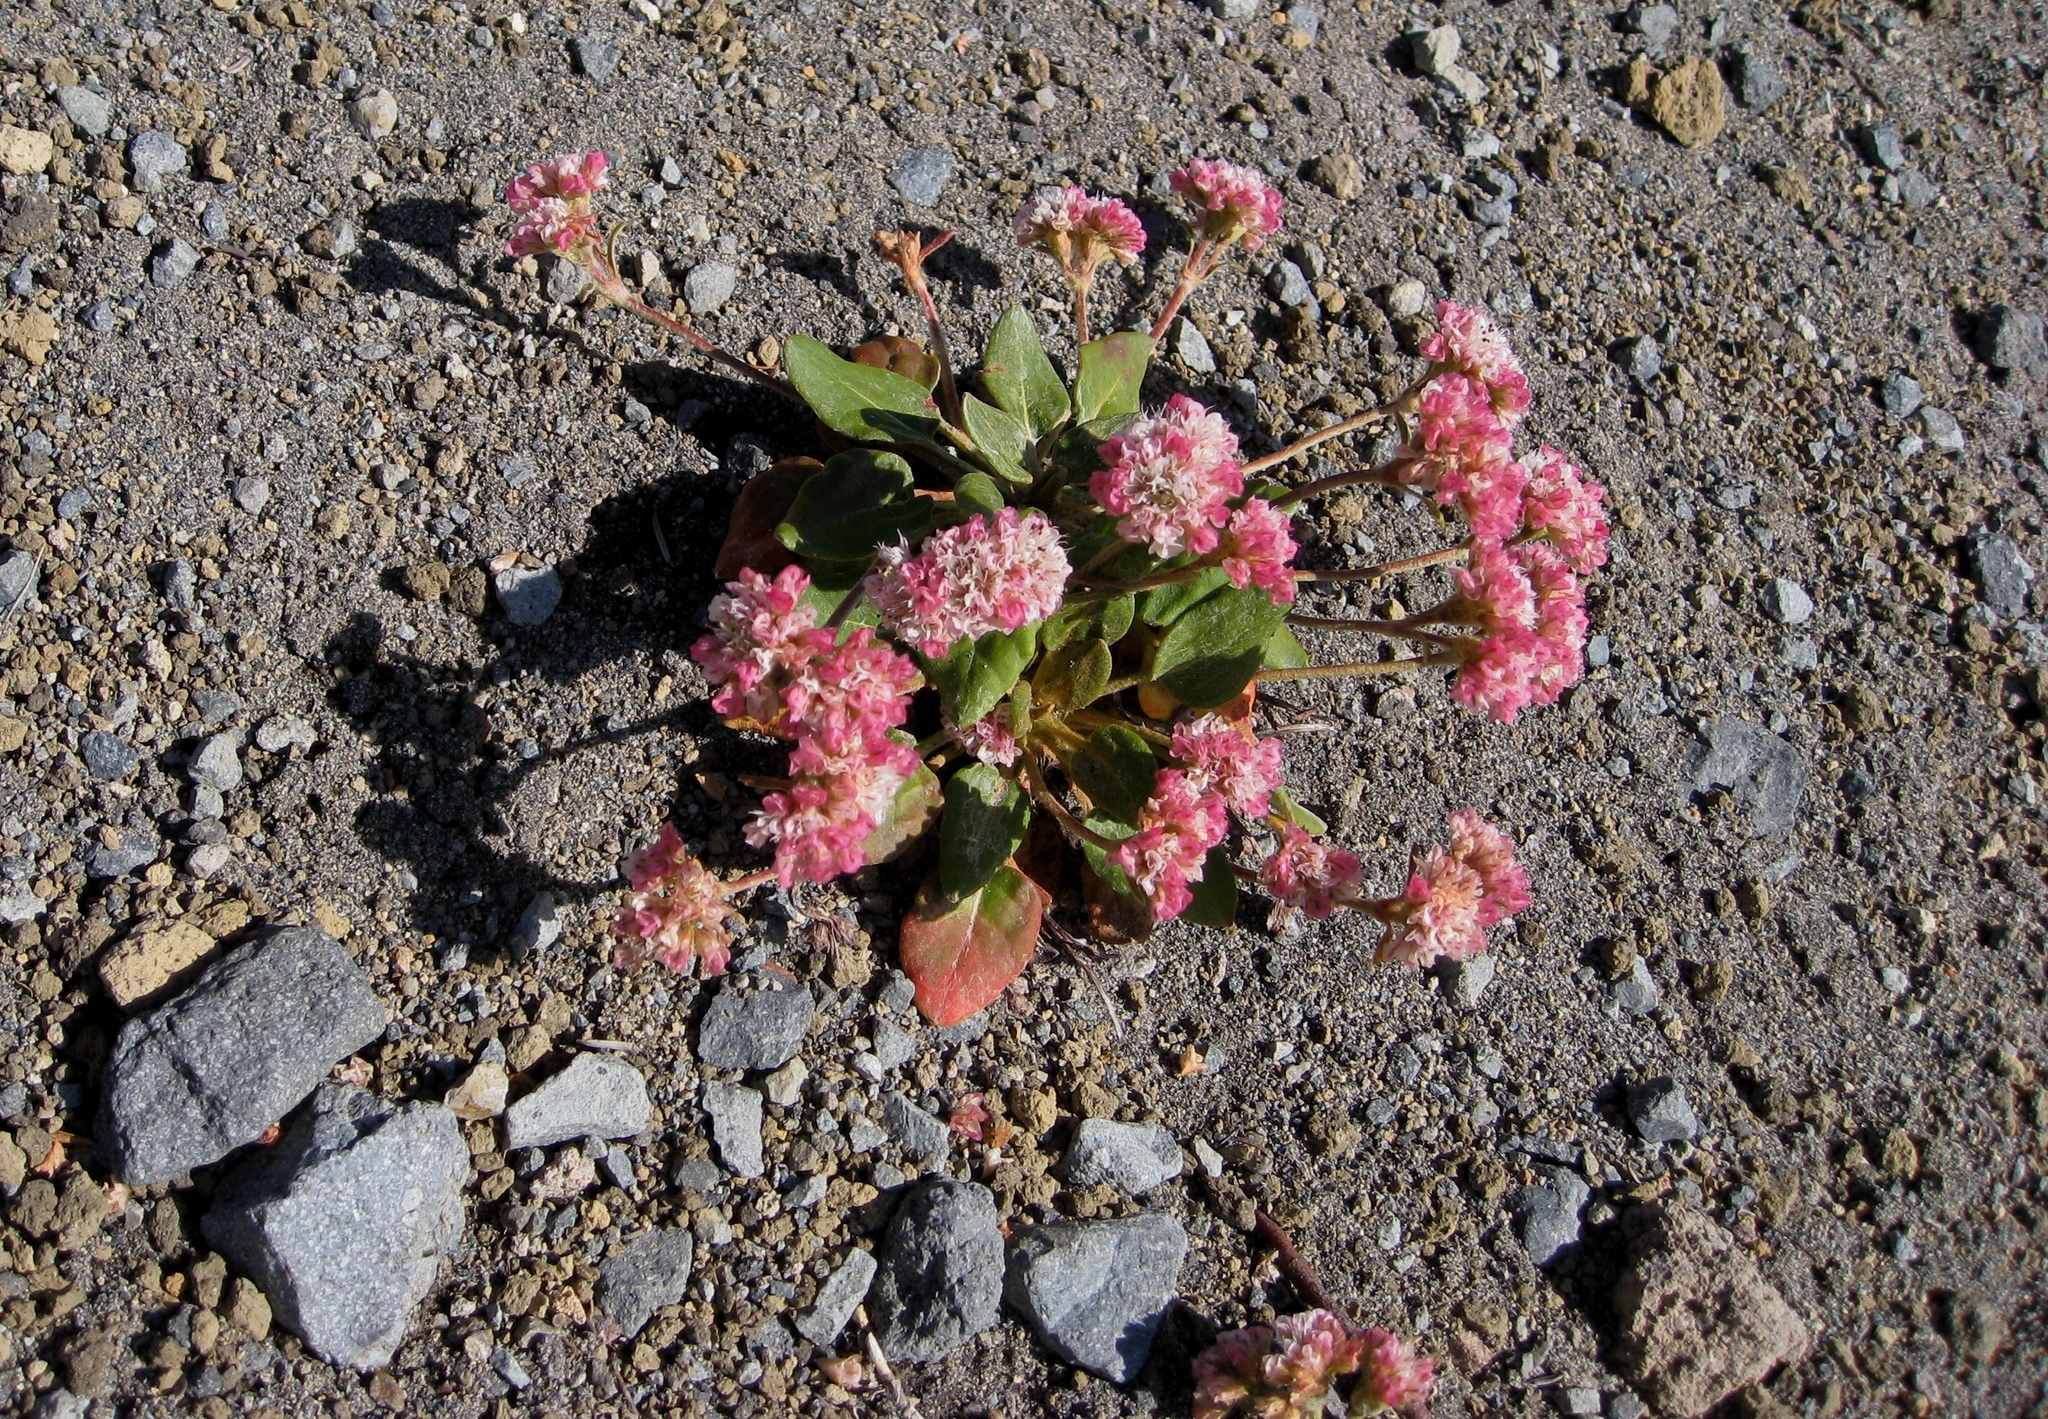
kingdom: Plantae
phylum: Tracheophyta
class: Magnoliopsida
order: Caryophyllales
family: Polygonaceae
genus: Eriogonum
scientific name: Eriogonum pyrolifolium
